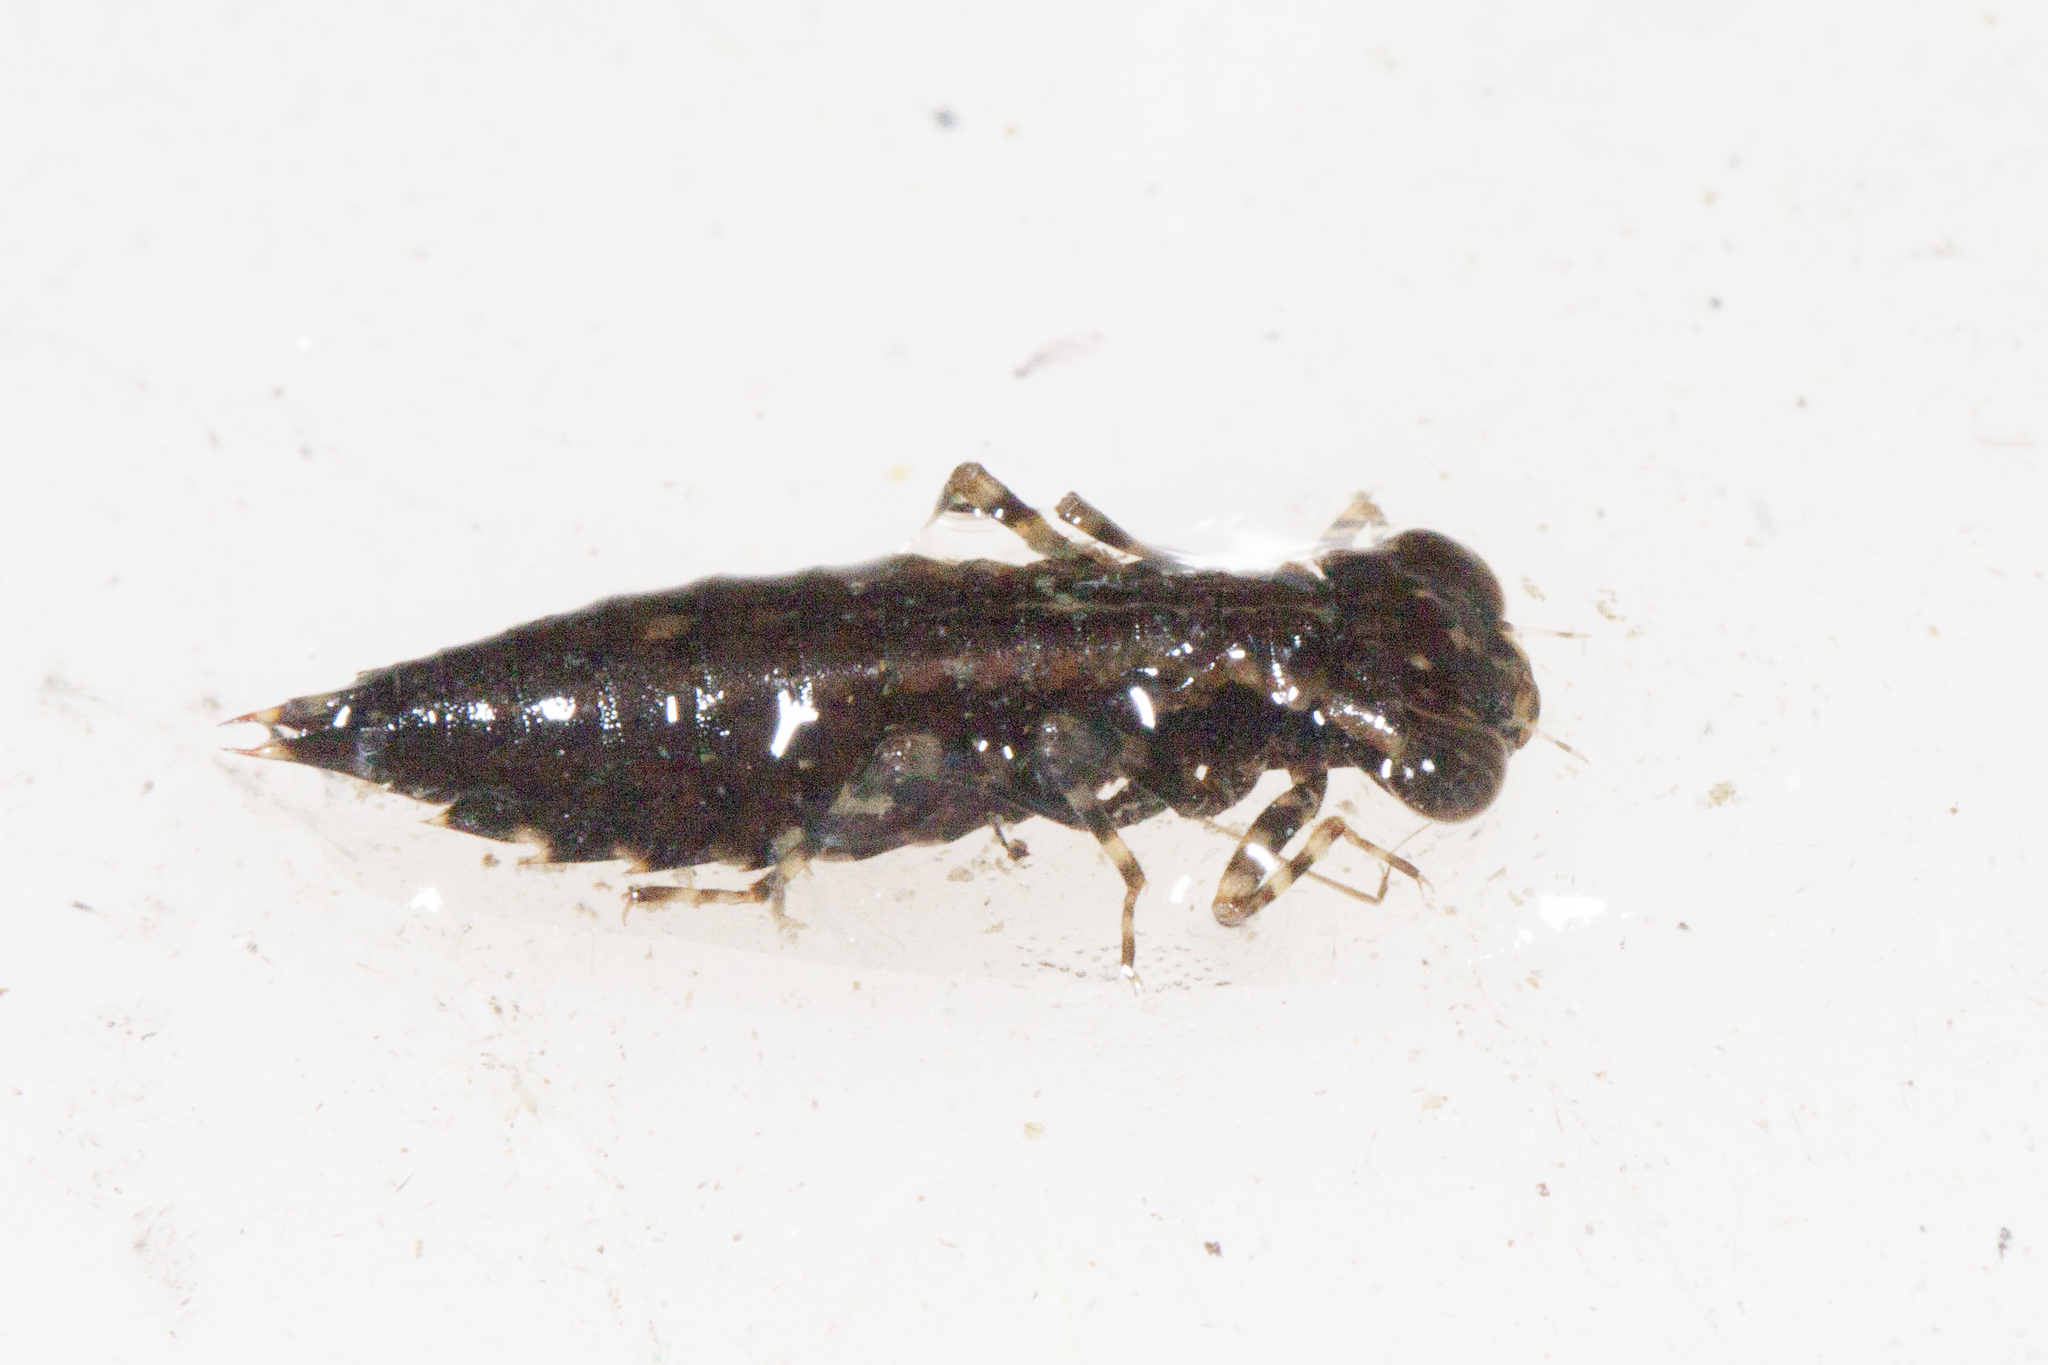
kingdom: Animalia
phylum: Arthropoda
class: Insecta
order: Odonata
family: Aeshnidae
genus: Basiaeschna
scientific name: Basiaeschna janata
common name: Springtime darner
